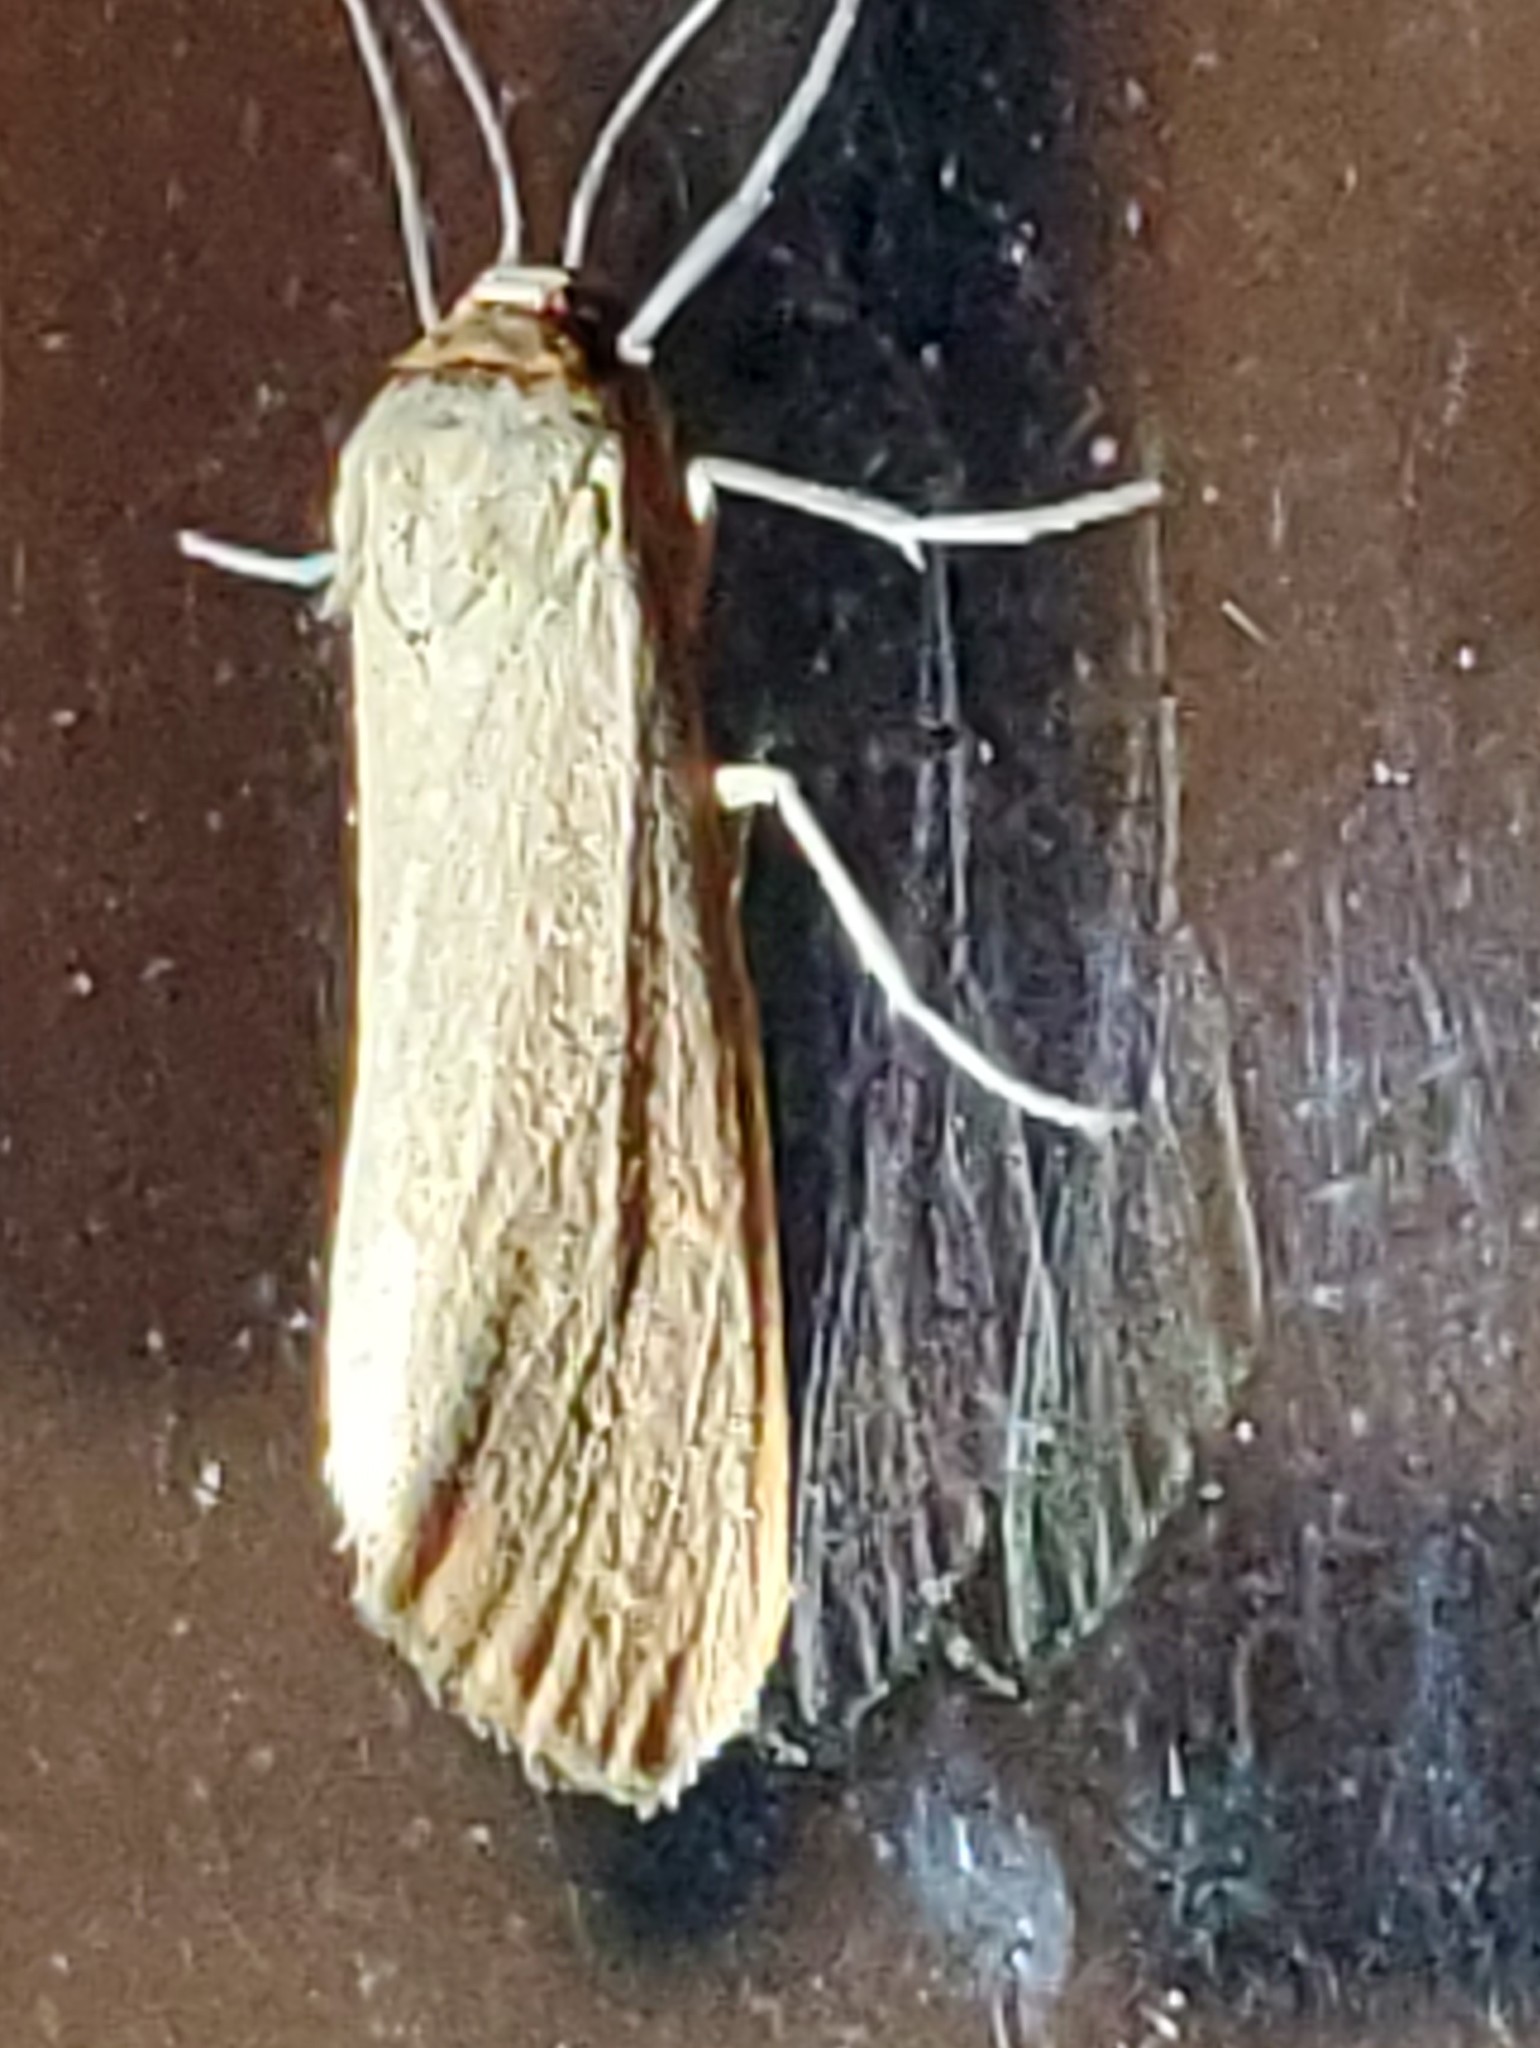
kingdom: Animalia
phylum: Arthropoda
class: Insecta
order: Lepidoptera
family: Erebidae
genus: Virbia
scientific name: Virbia costata
